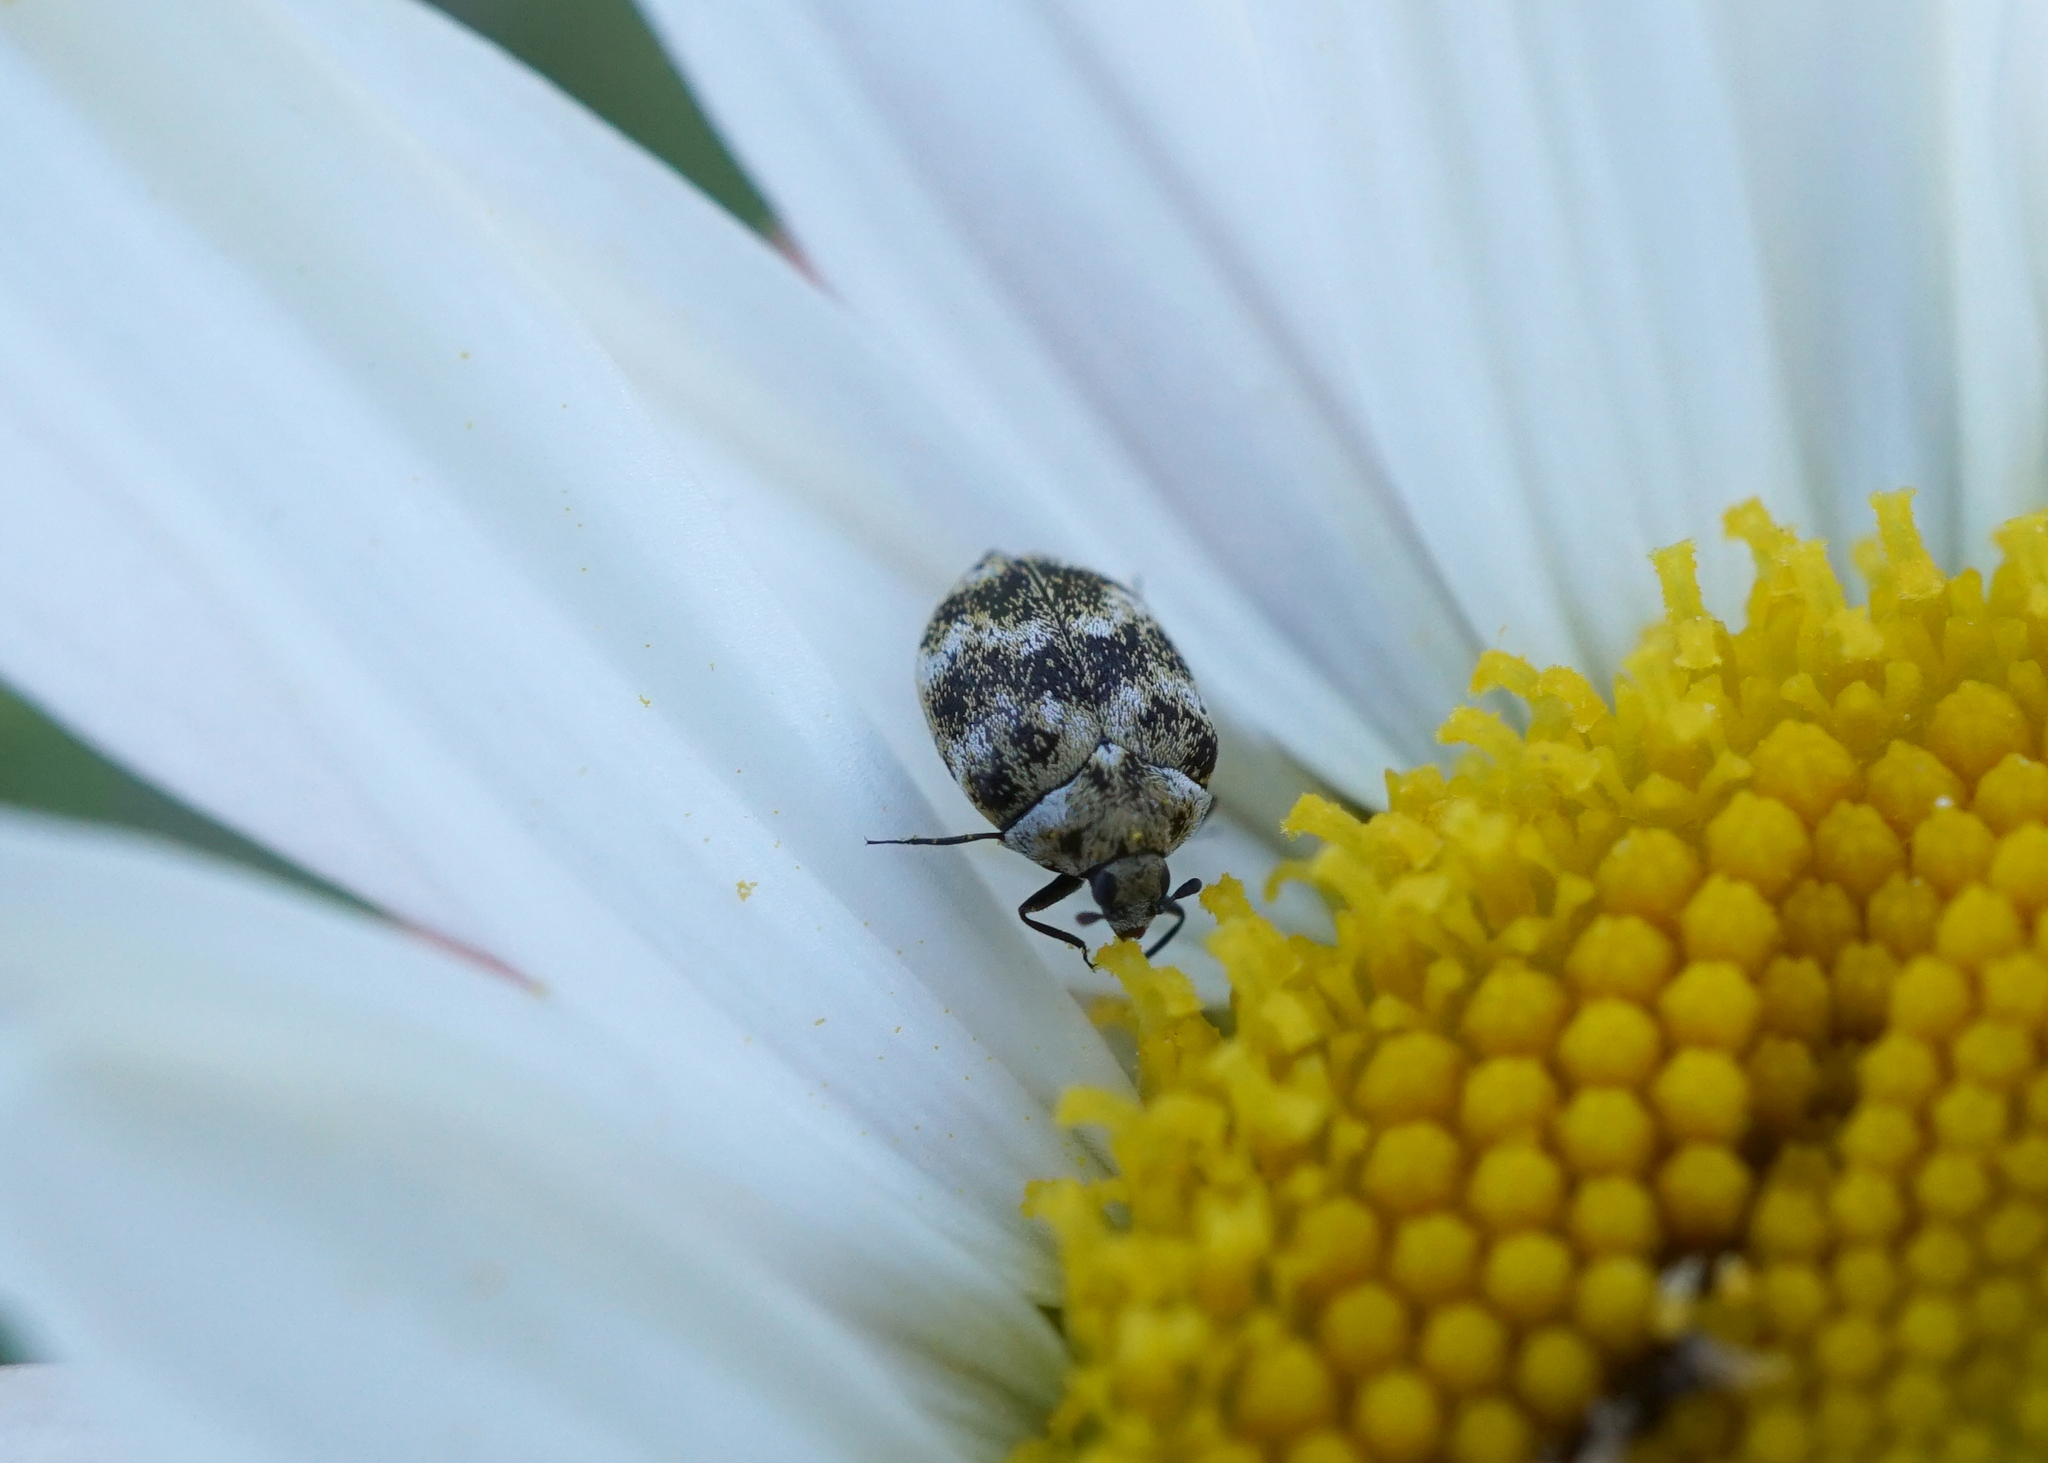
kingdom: Animalia
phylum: Arthropoda
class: Insecta
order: Coleoptera
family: Dermestidae
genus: Anthrenus
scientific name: Anthrenus verbasci
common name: Varied carpet beetle
